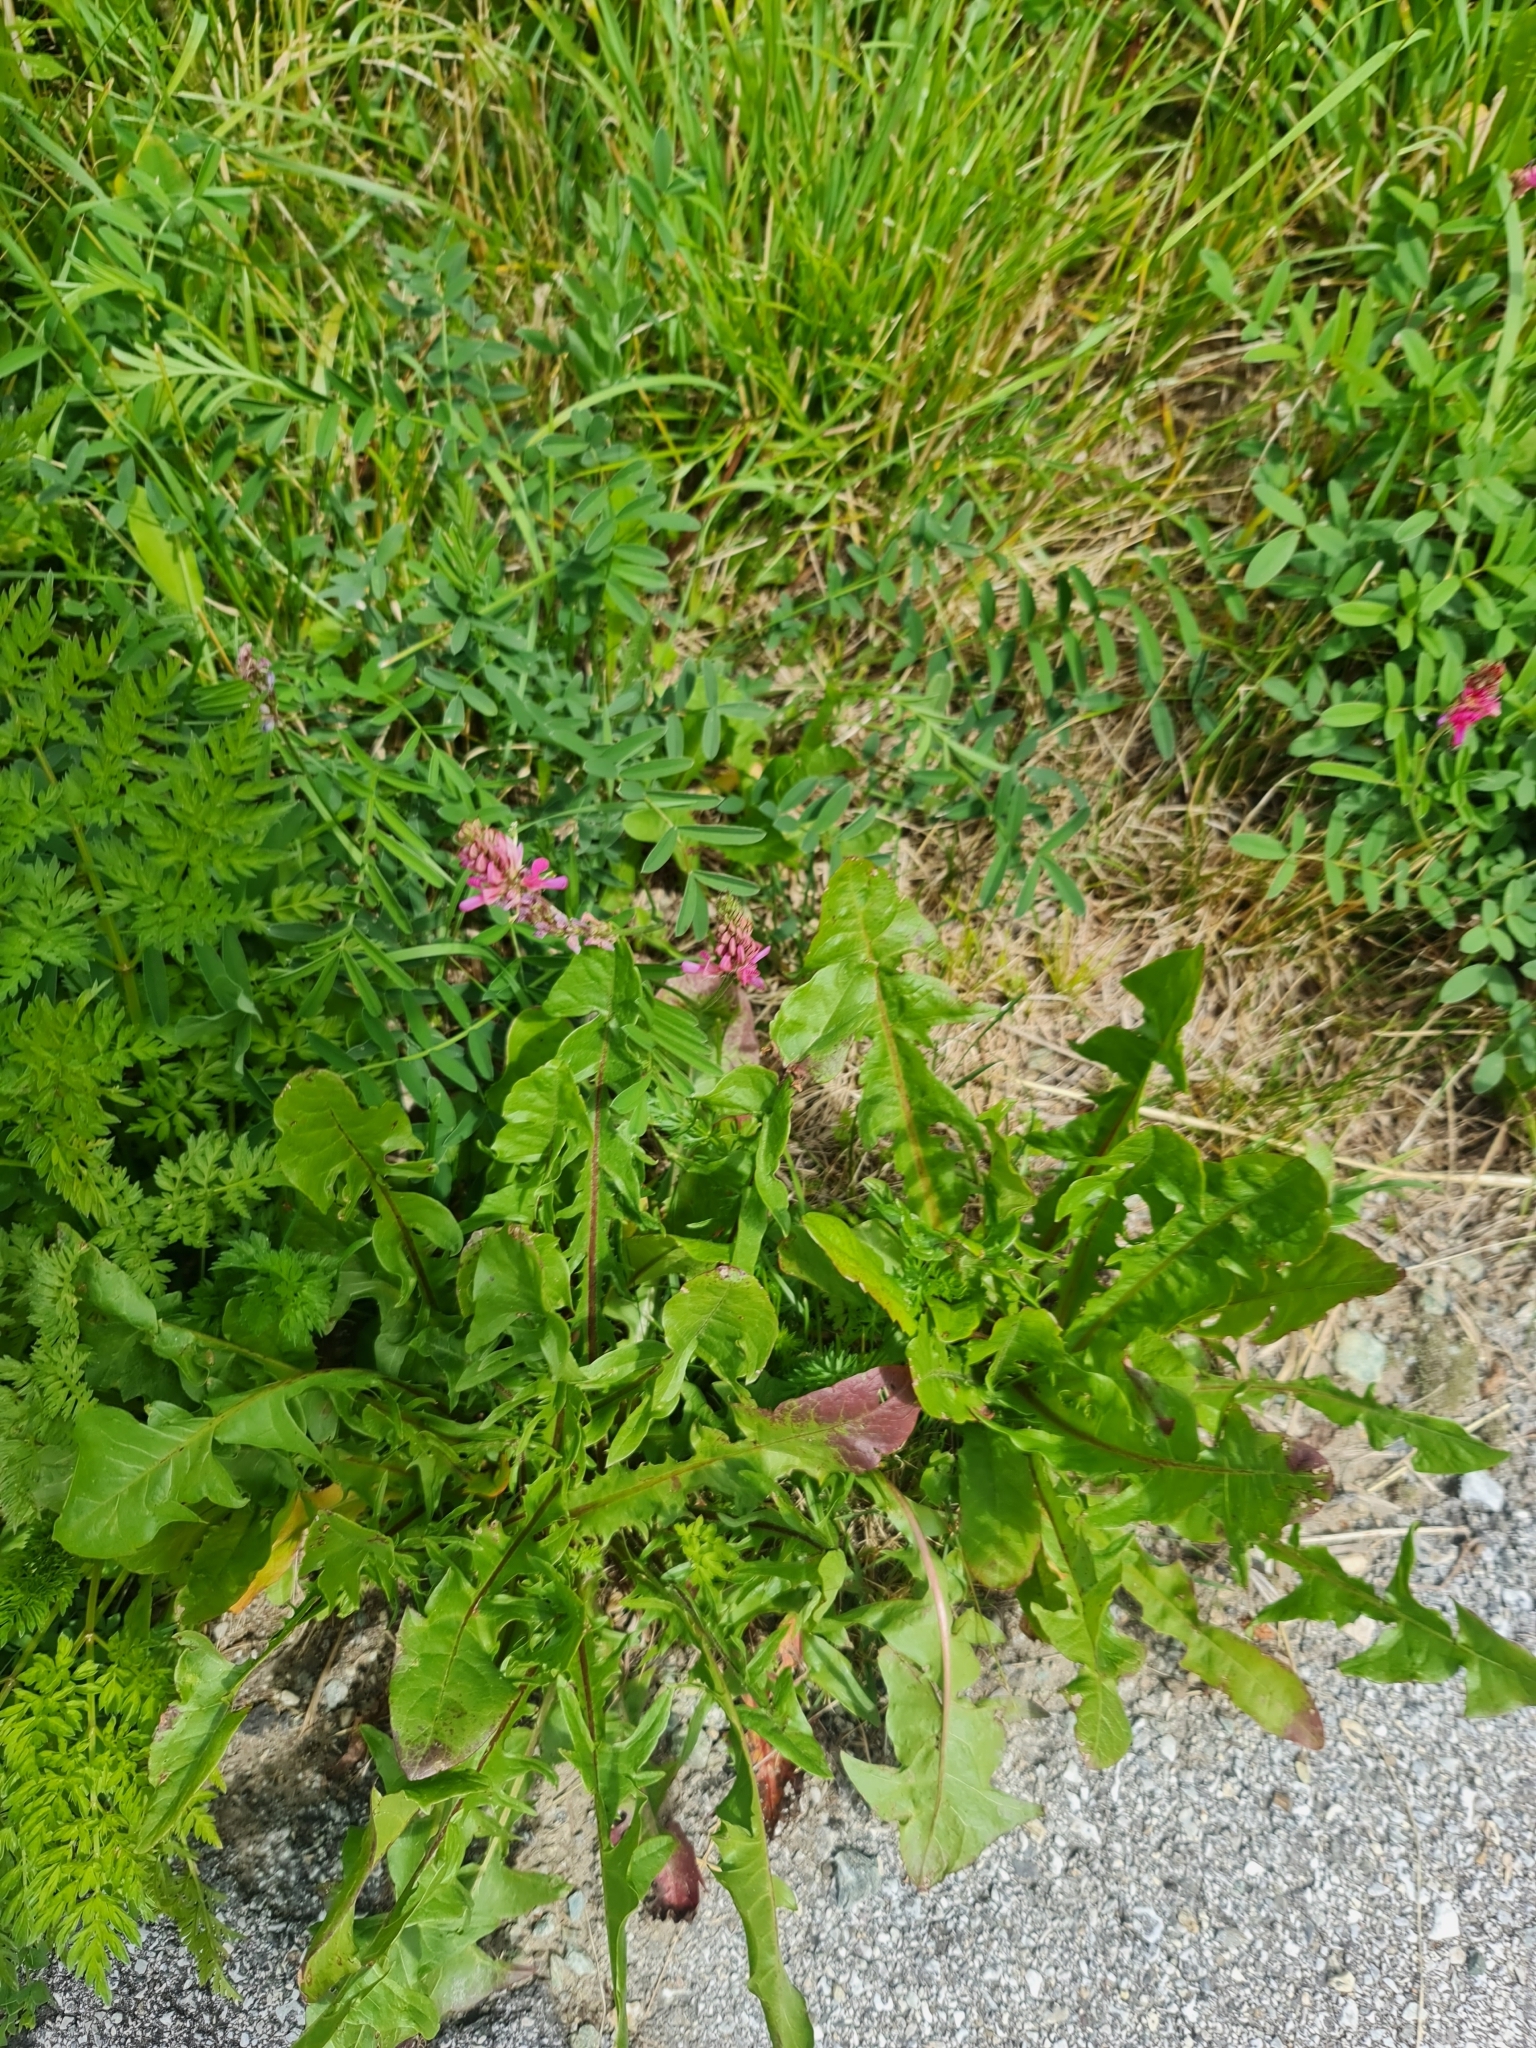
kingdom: Plantae
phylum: Tracheophyta
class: Magnoliopsida
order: Asterales
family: Asteraceae
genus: Centaurea
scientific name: Centaurea scabiosa
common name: Greater knapweed
